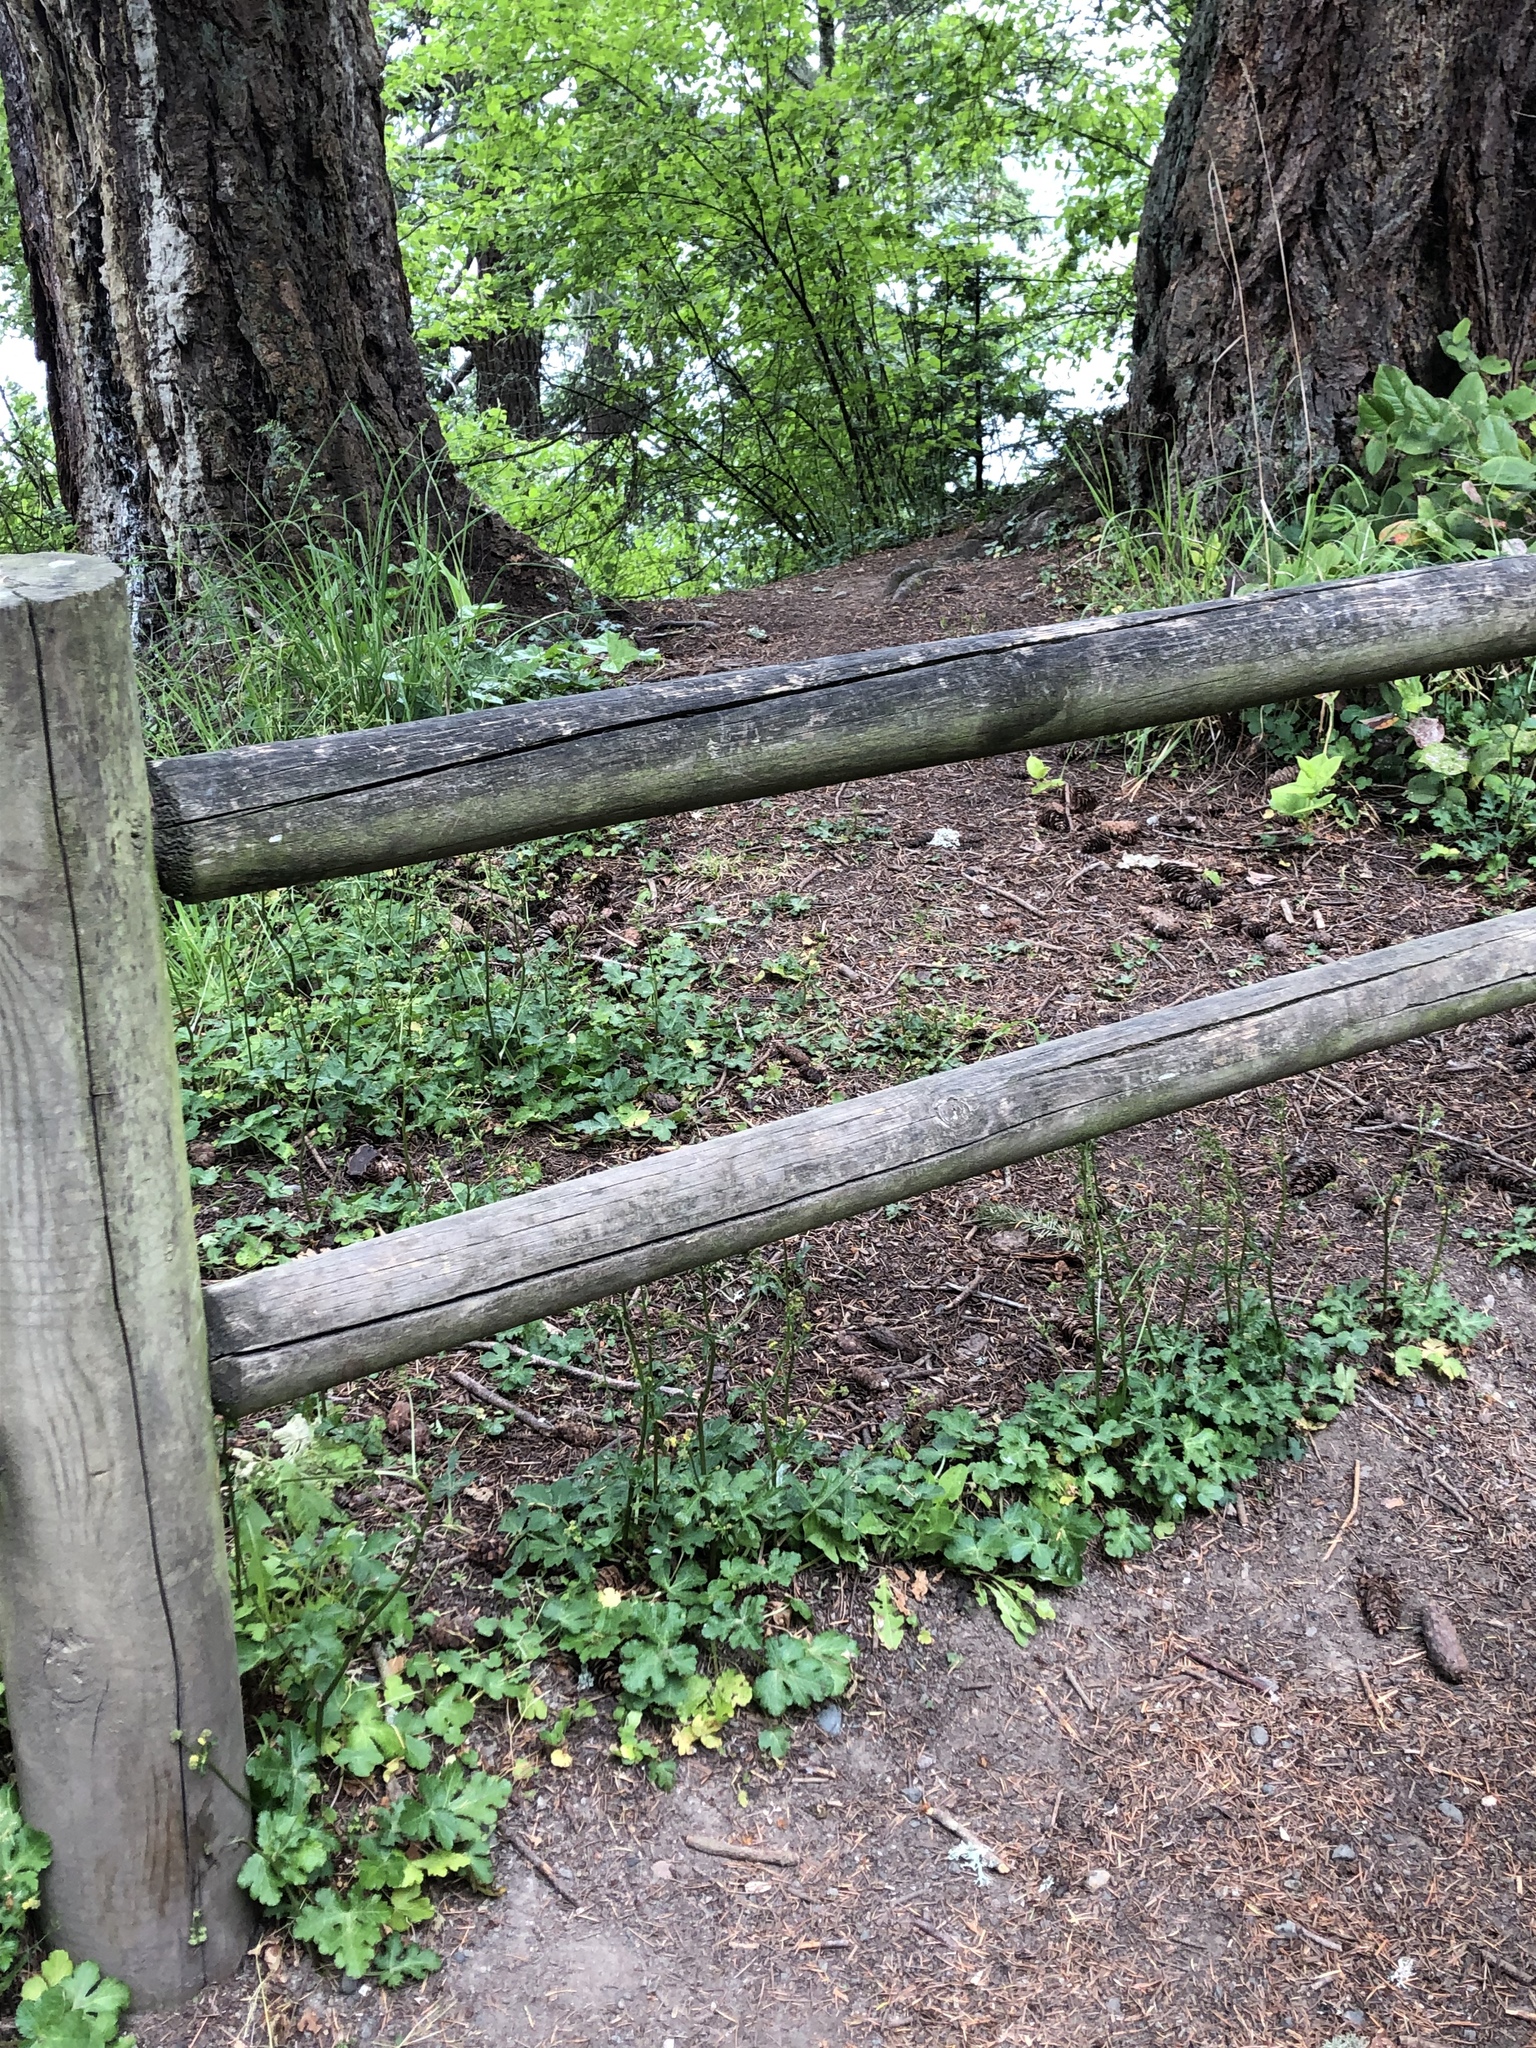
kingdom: Plantae
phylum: Tracheophyta
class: Magnoliopsida
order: Apiales
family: Apiaceae
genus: Sanicula
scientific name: Sanicula crassicaulis
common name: Western snakeroot
